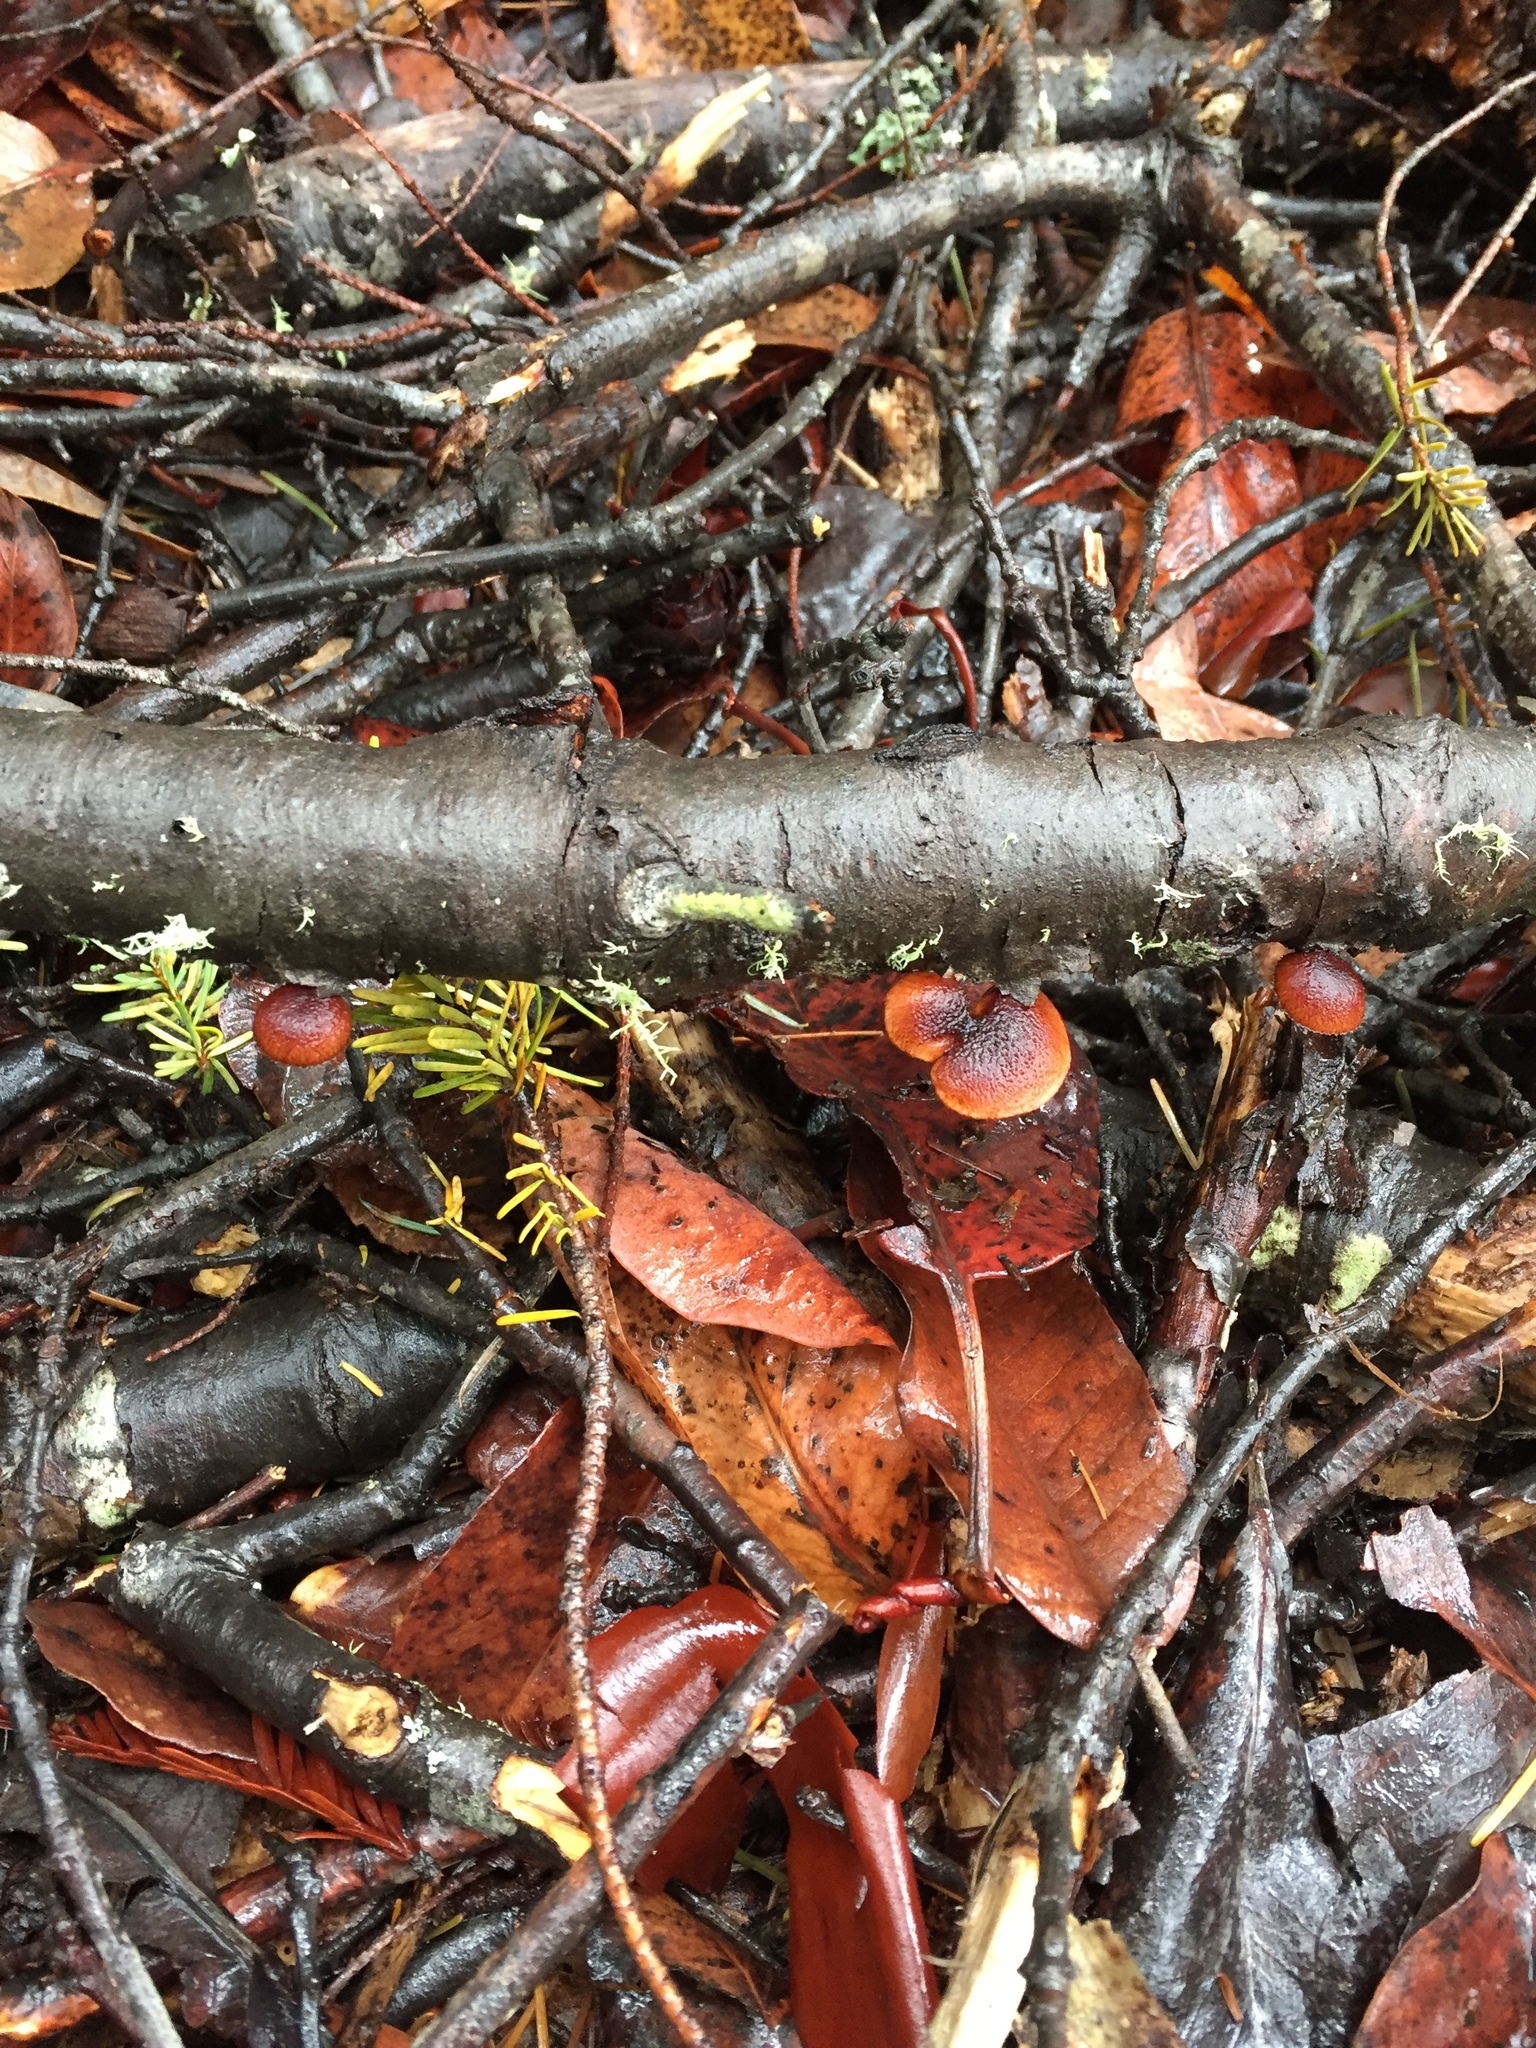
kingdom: Fungi
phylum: Basidiomycota
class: Agaricomycetes
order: Agaricales
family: Tubariaceae
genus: Phaeomarasmius
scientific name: Phaeomarasmius erinaceus
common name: Hedgehog scalycap
